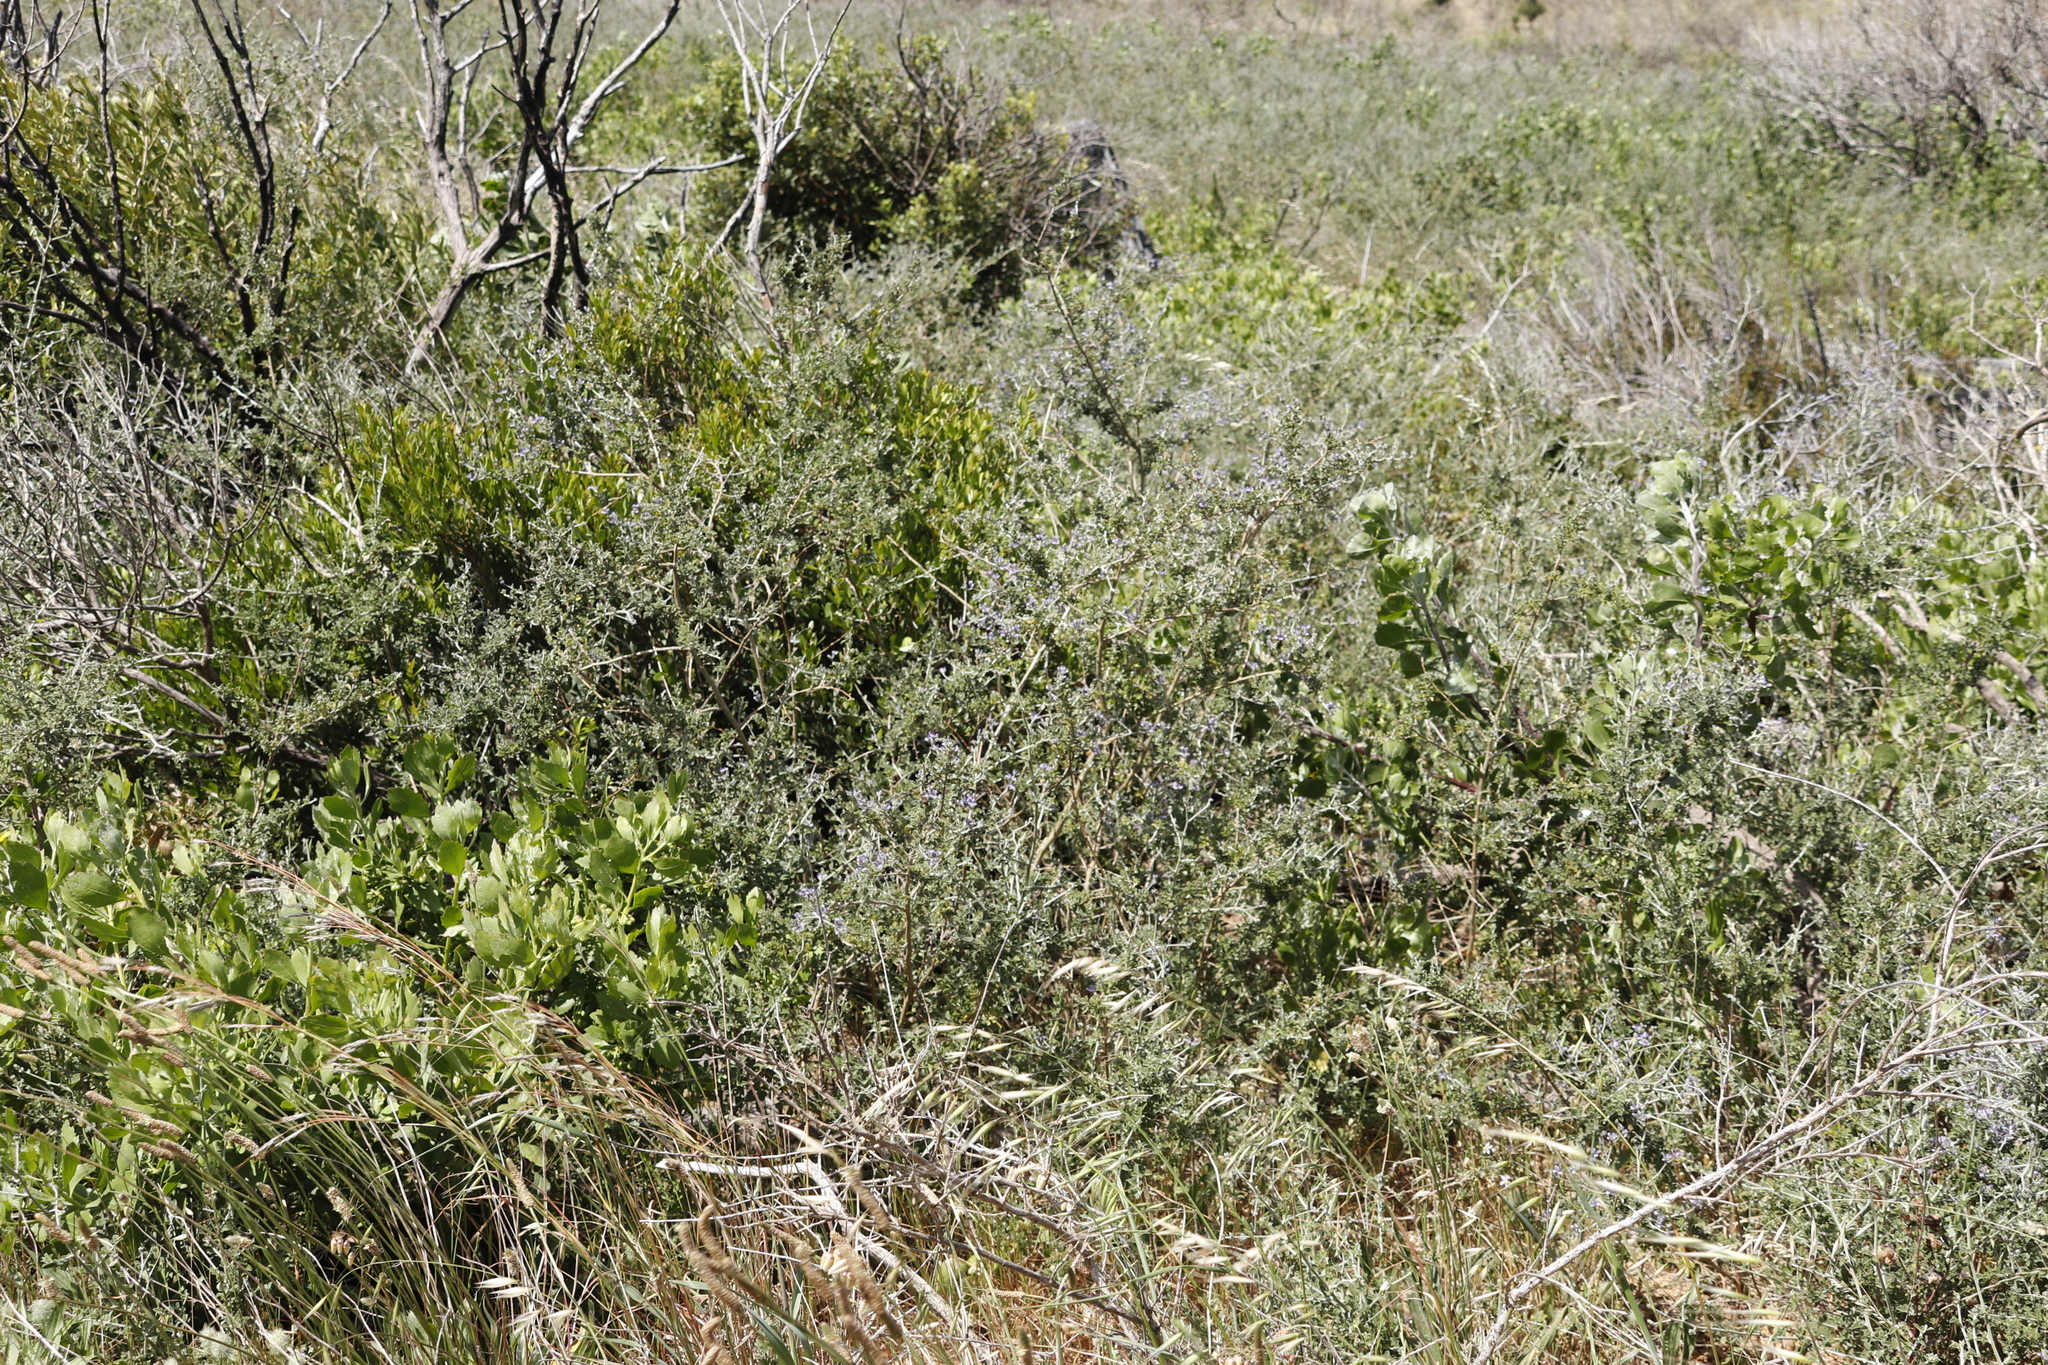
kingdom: Plantae
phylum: Tracheophyta
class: Magnoliopsida
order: Fabales
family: Fabaceae
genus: Psoralea
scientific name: Psoralea hirta
